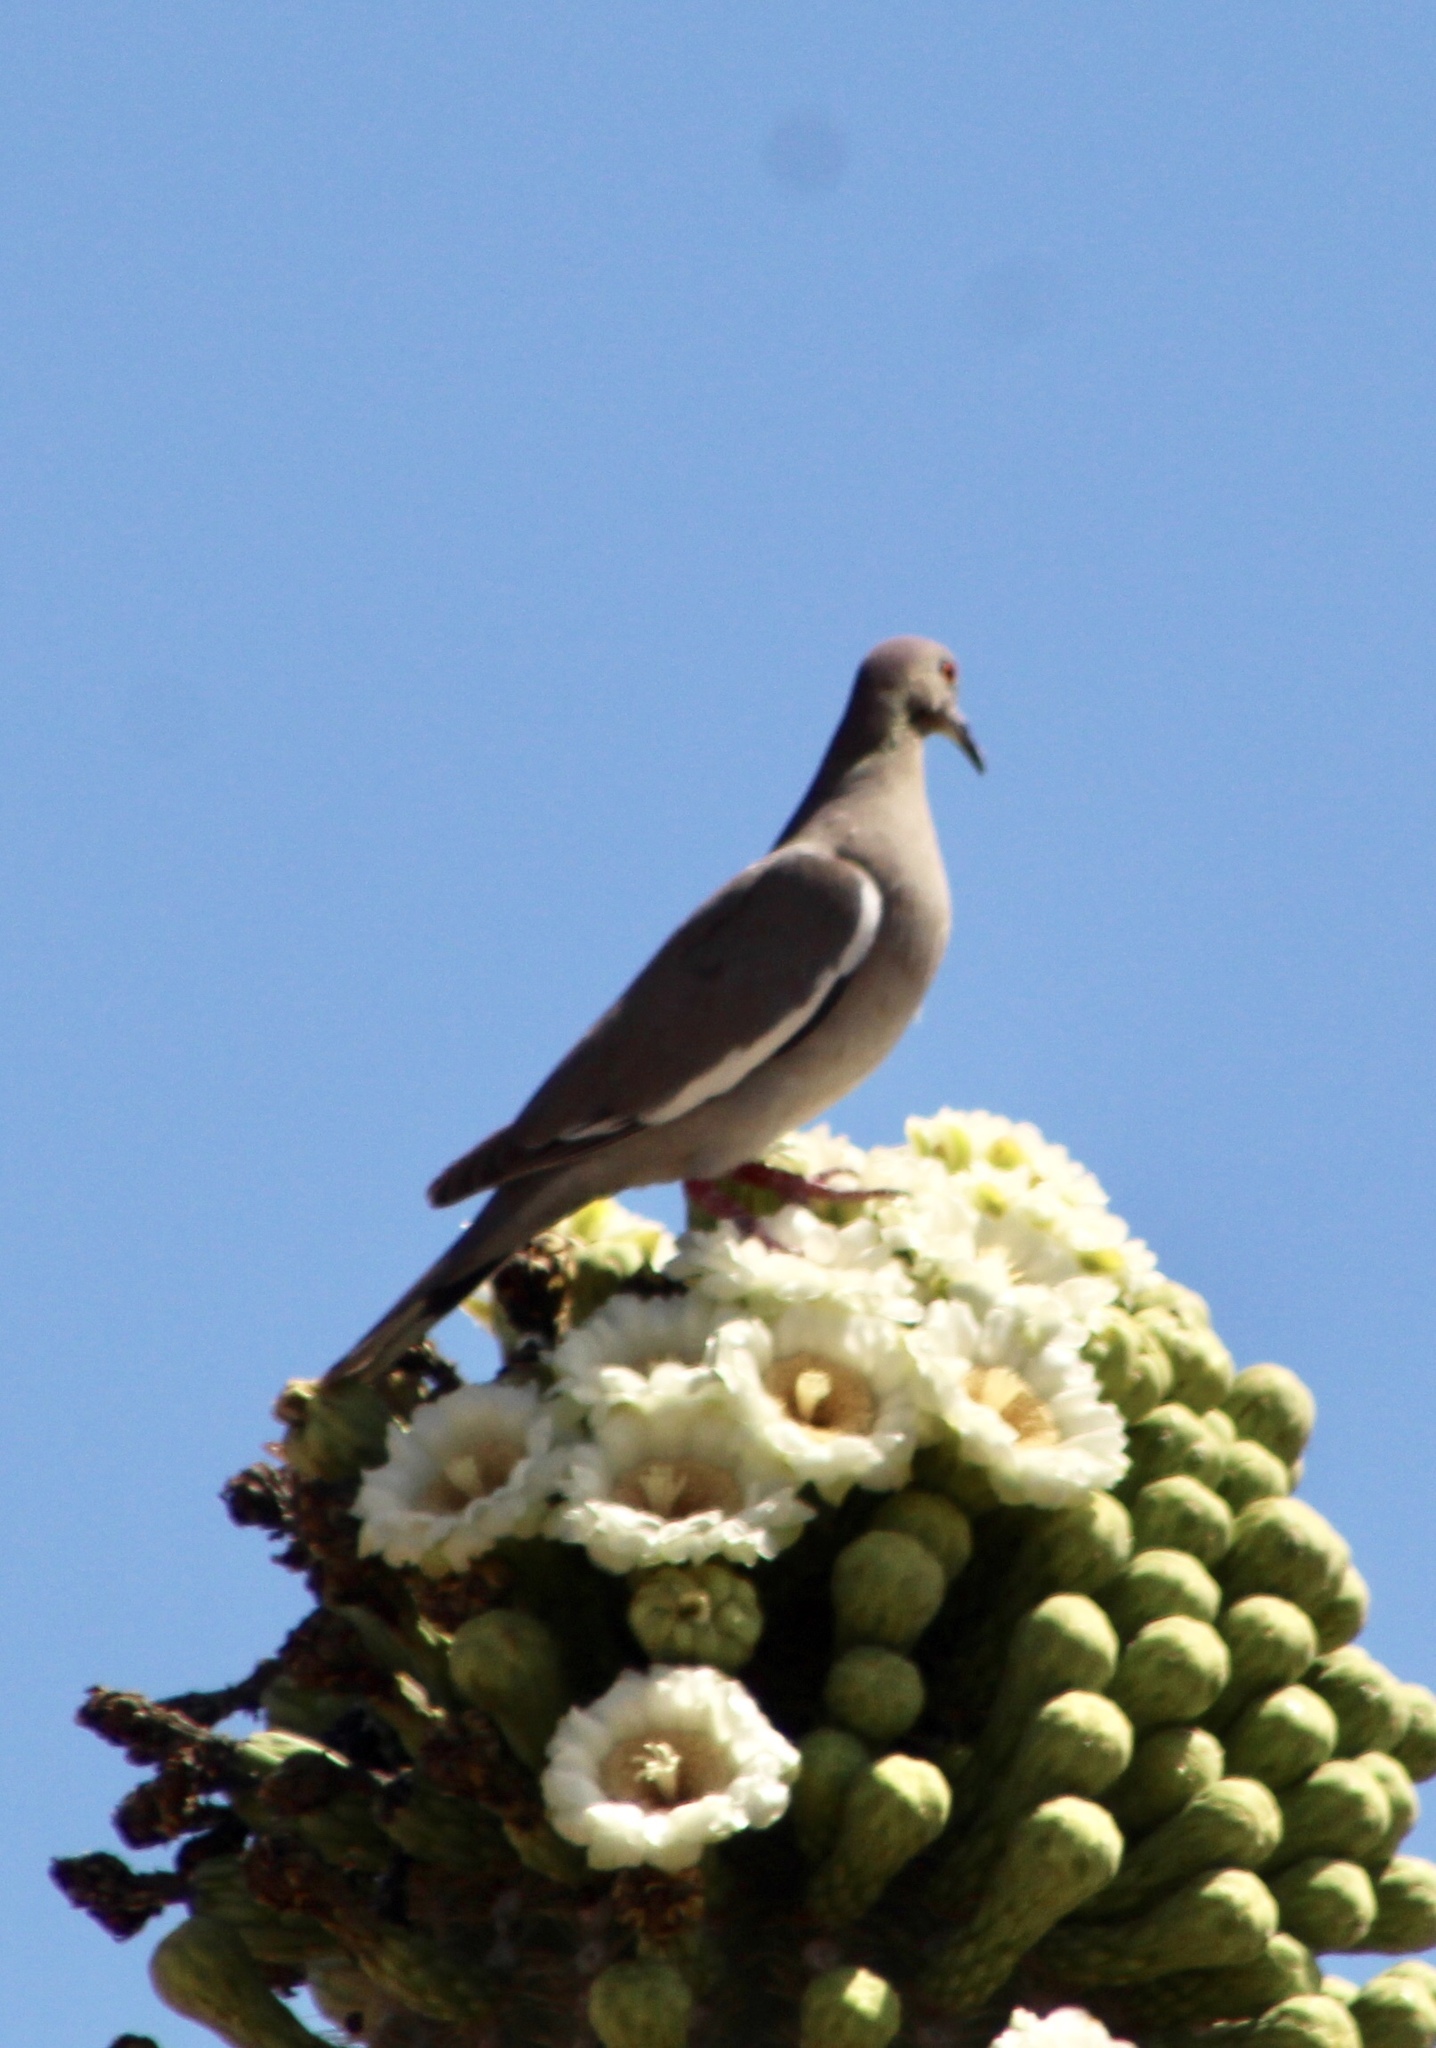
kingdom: Animalia
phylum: Chordata
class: Aves
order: Columbiformes
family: Columbidae
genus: Zenaida
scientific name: Zenaida asiatica
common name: White-winged dove
